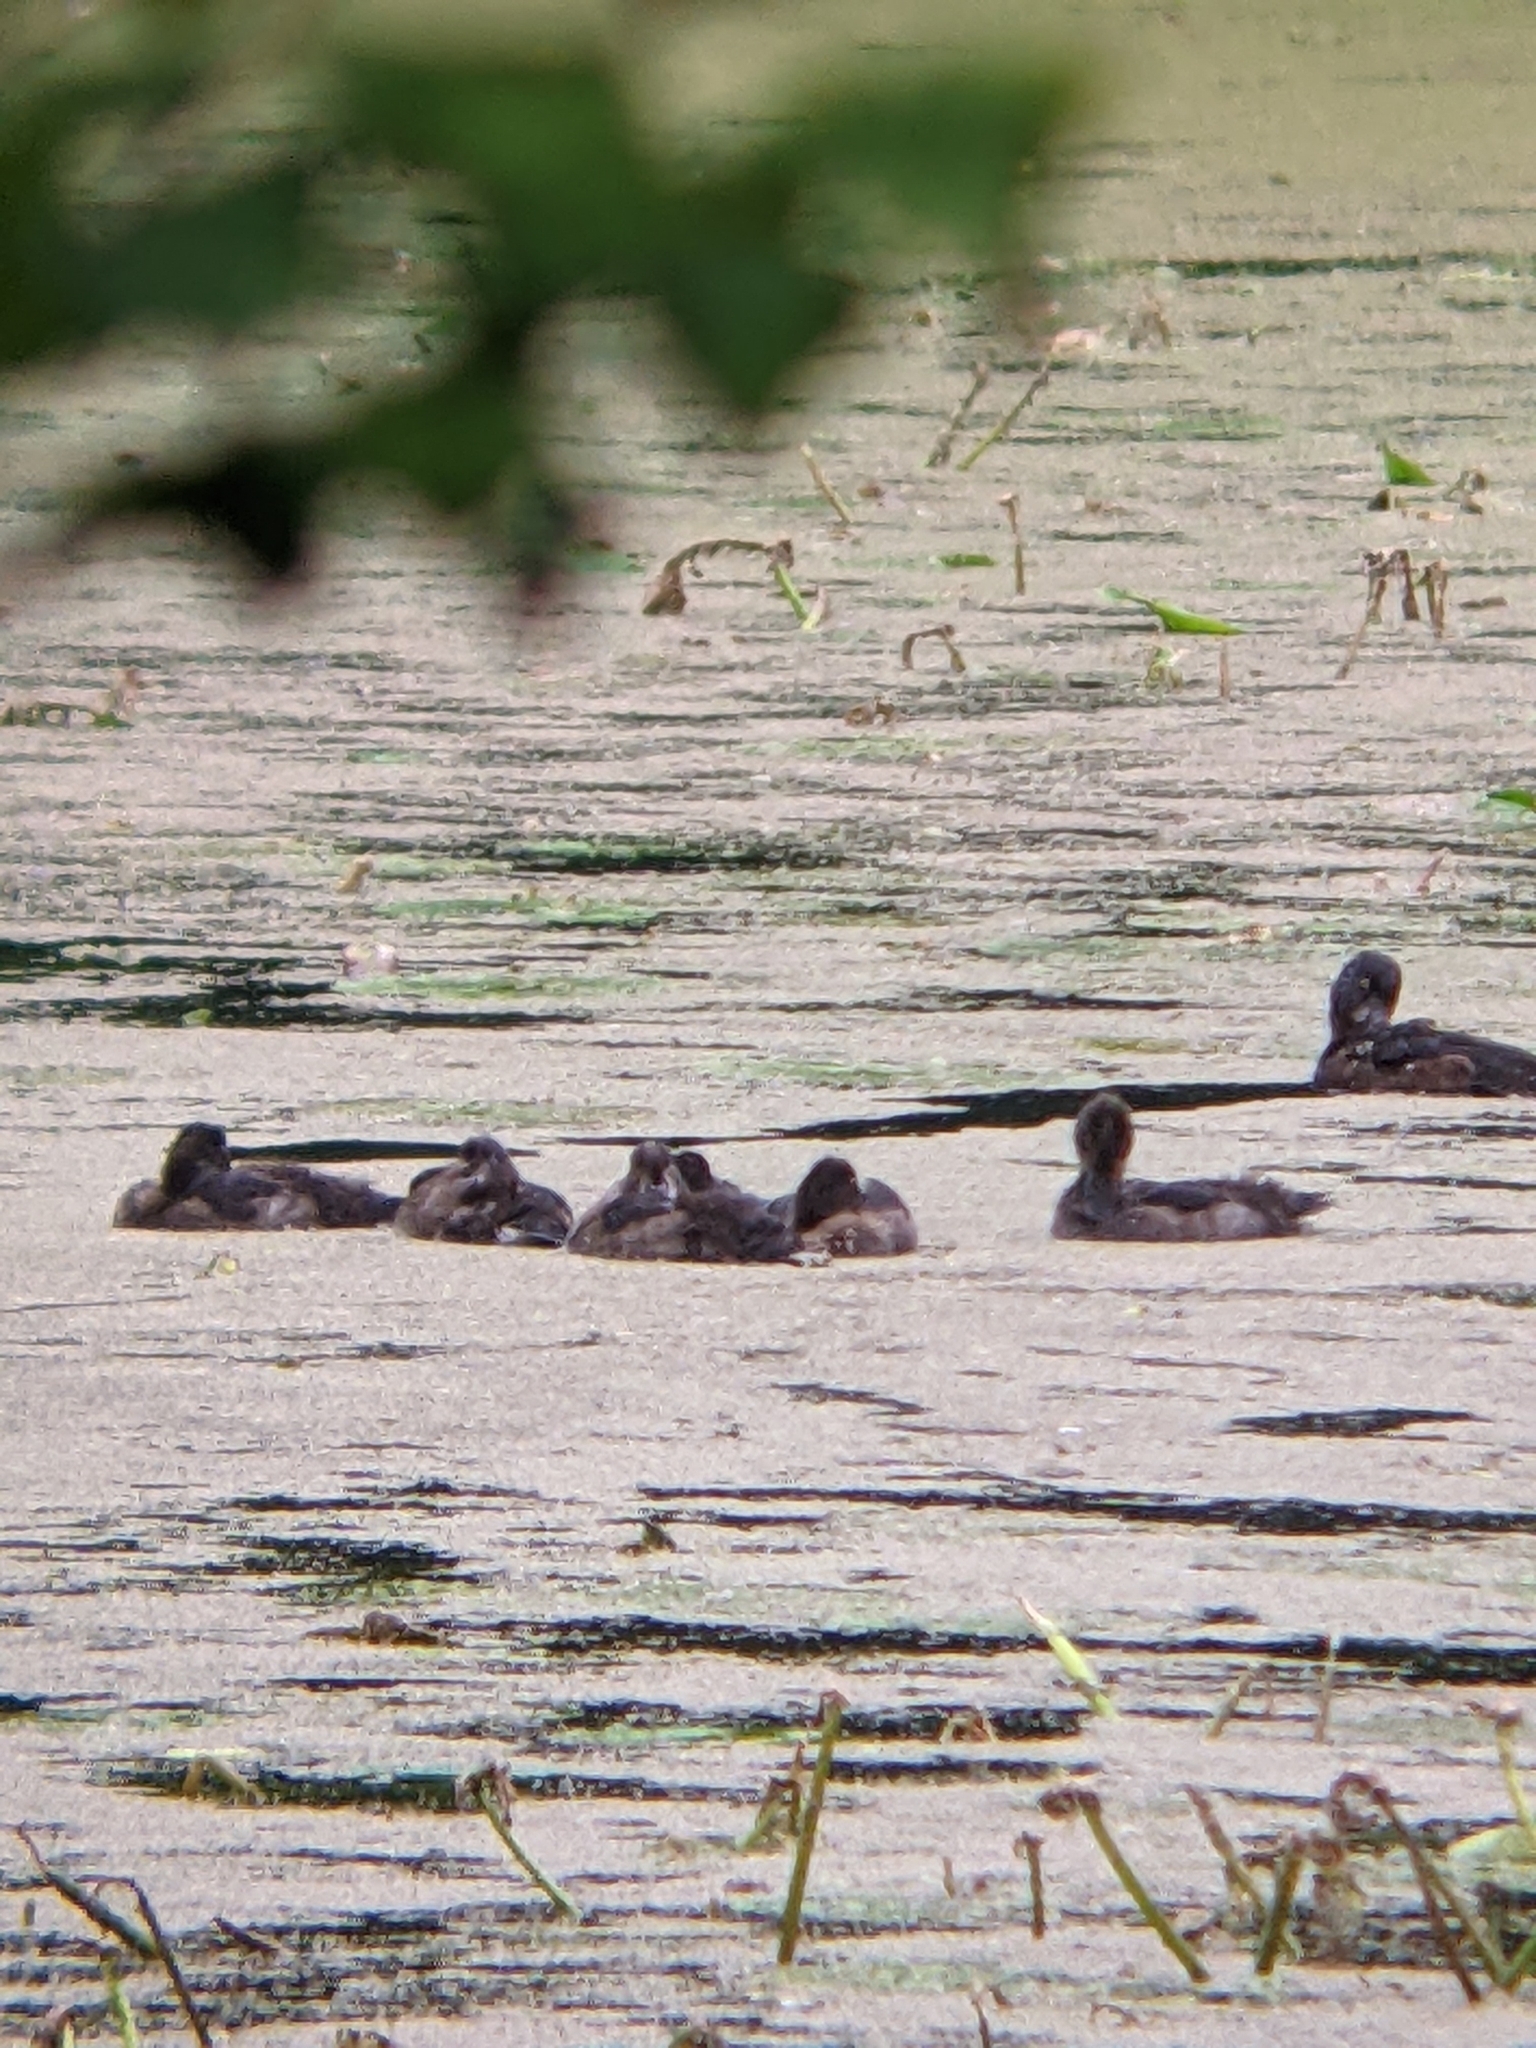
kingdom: Animalia
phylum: Chordata
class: Aves
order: Anseriformes
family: Anatidae
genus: Aythya
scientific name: Aythya fuligula
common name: Tufted duck
